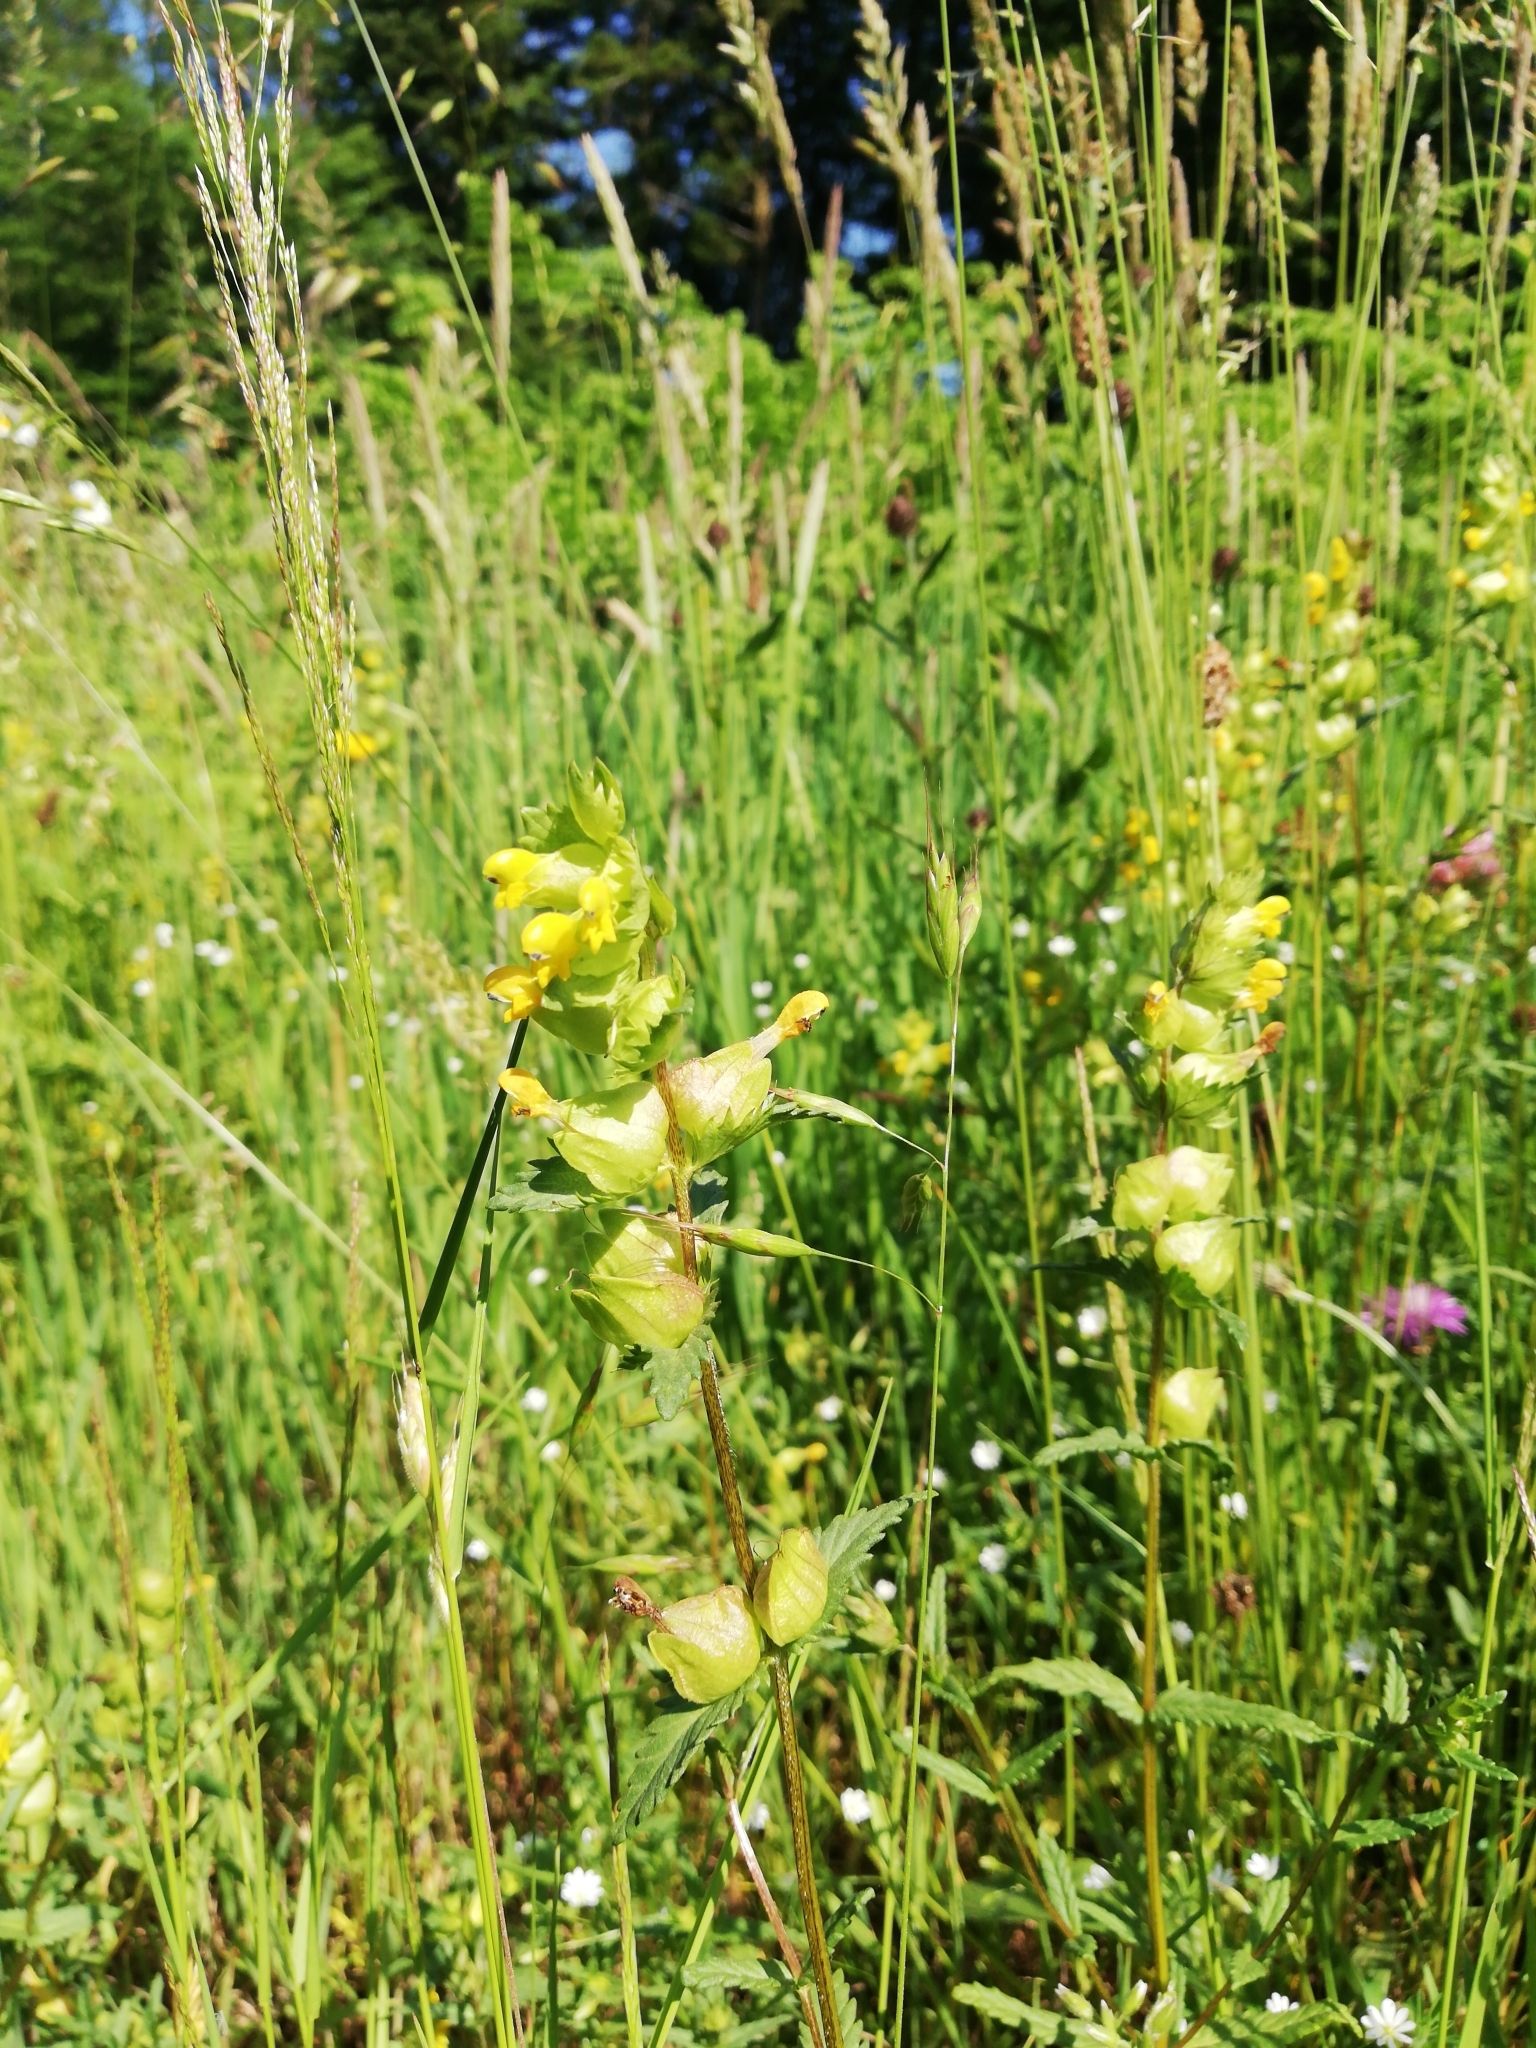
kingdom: Plantae
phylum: Tracheophyta
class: Magnoliopsida
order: Lamiales
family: Orobanchaceae
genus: Rhinanthus
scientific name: Rhinanthus minor
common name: Yellow-rattle
